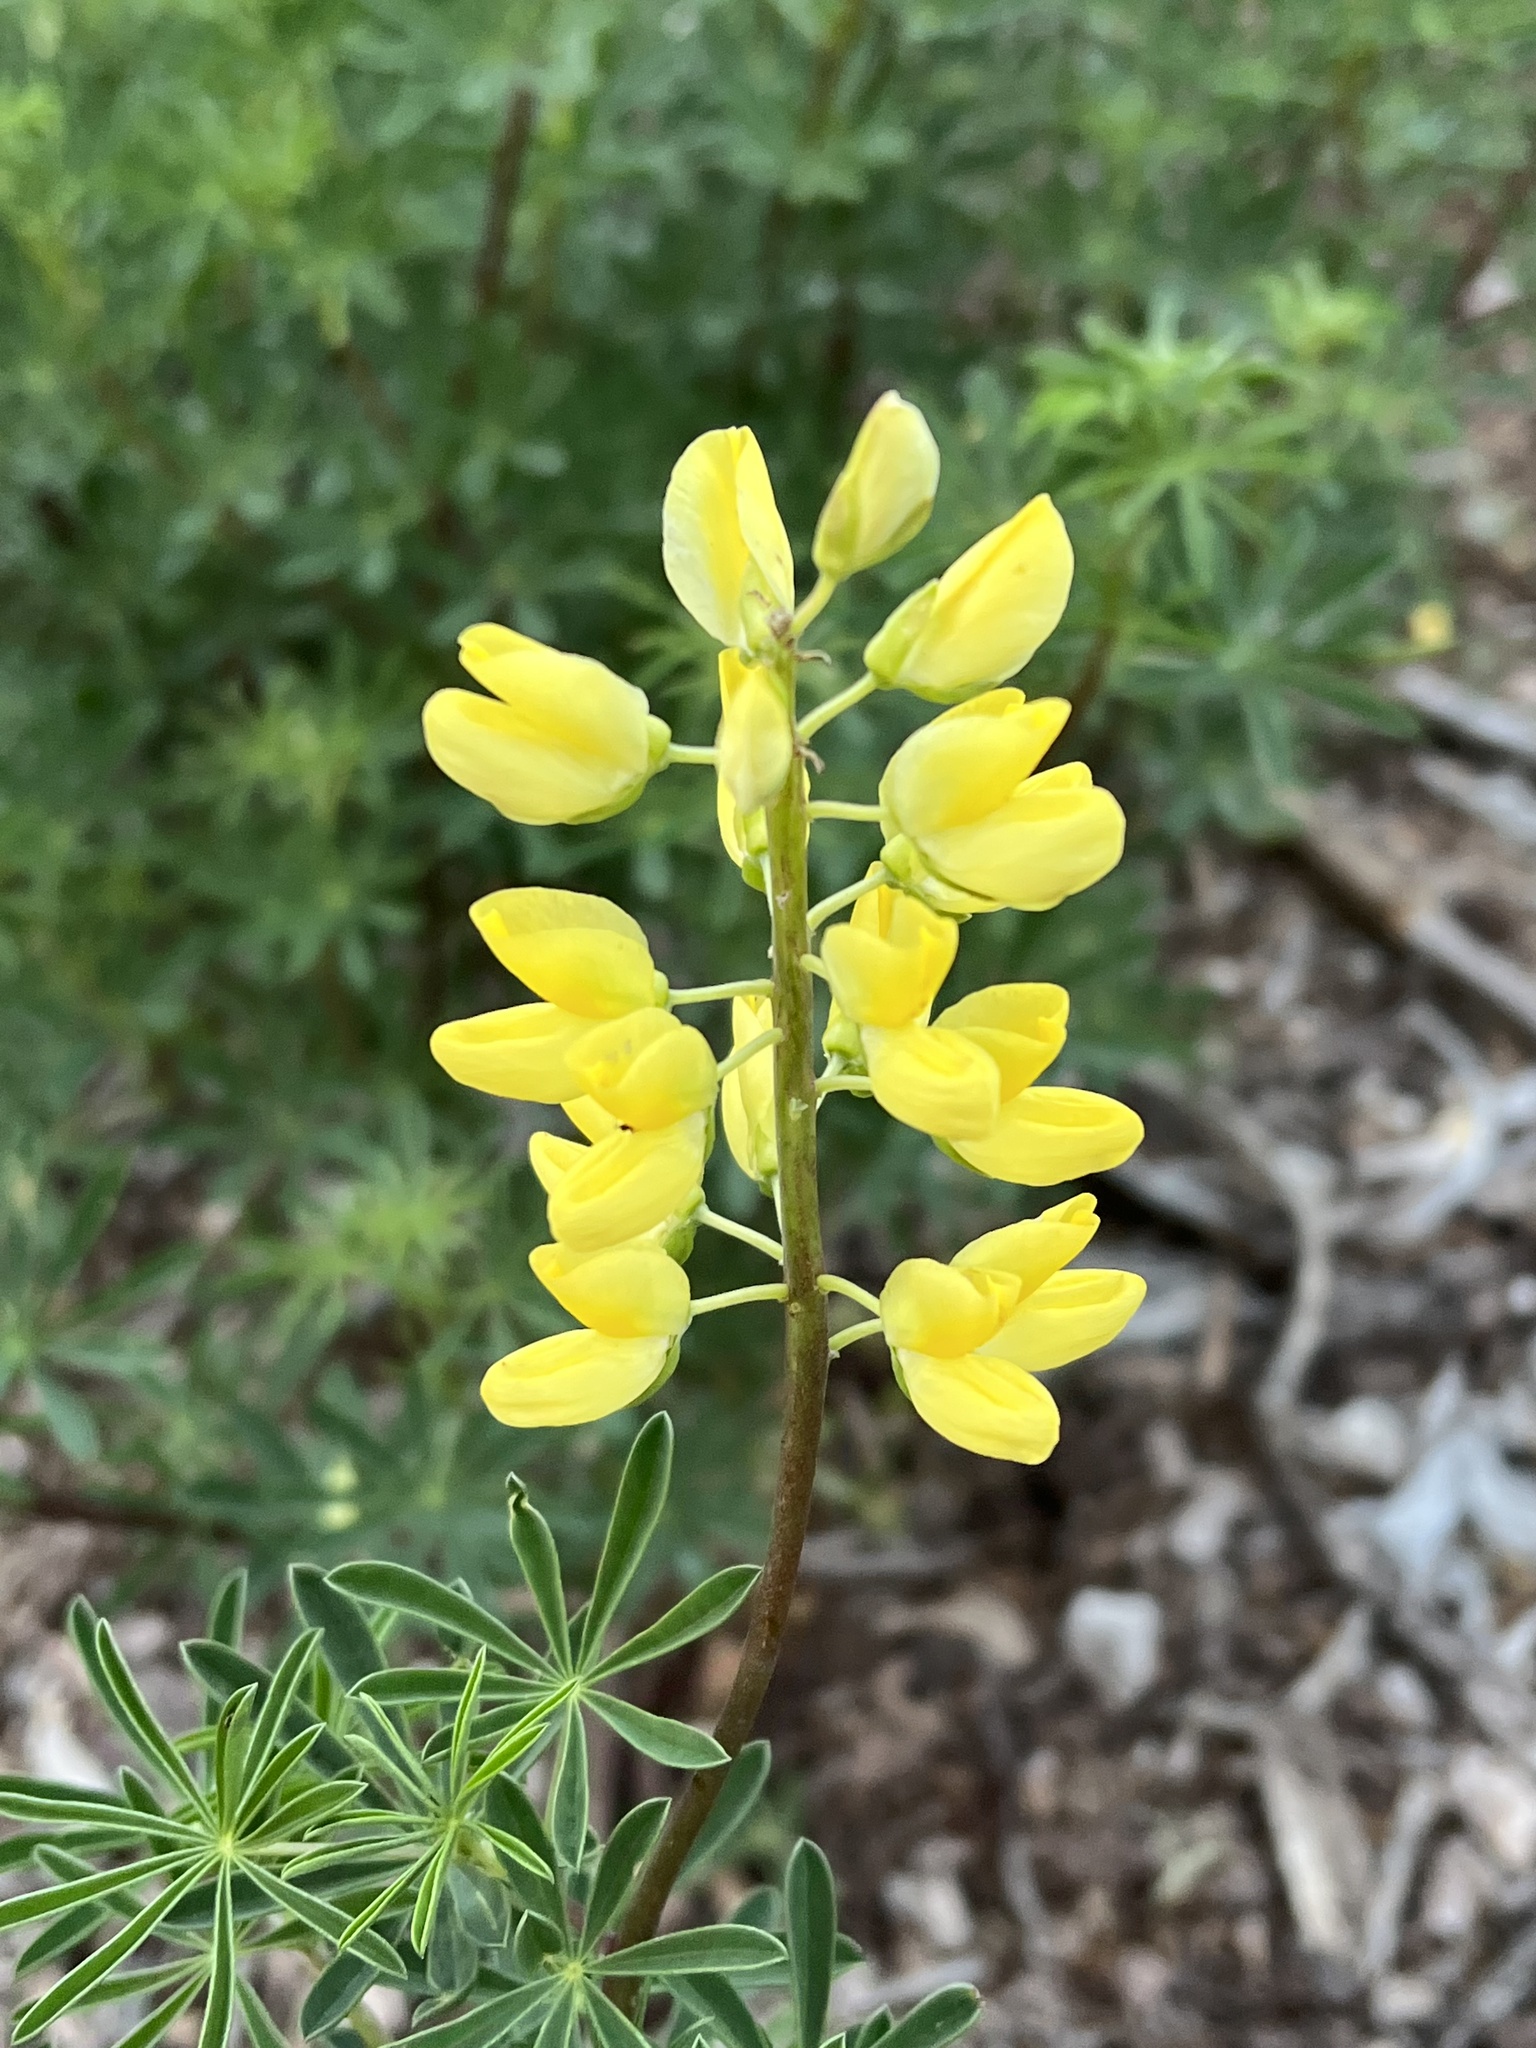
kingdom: Plantae
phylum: Tracheophyta
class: Magnoliopsida
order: Fabales
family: Fabaceae
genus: Lupinus
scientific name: Lupinus arboreus
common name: Yellow bush lupine
